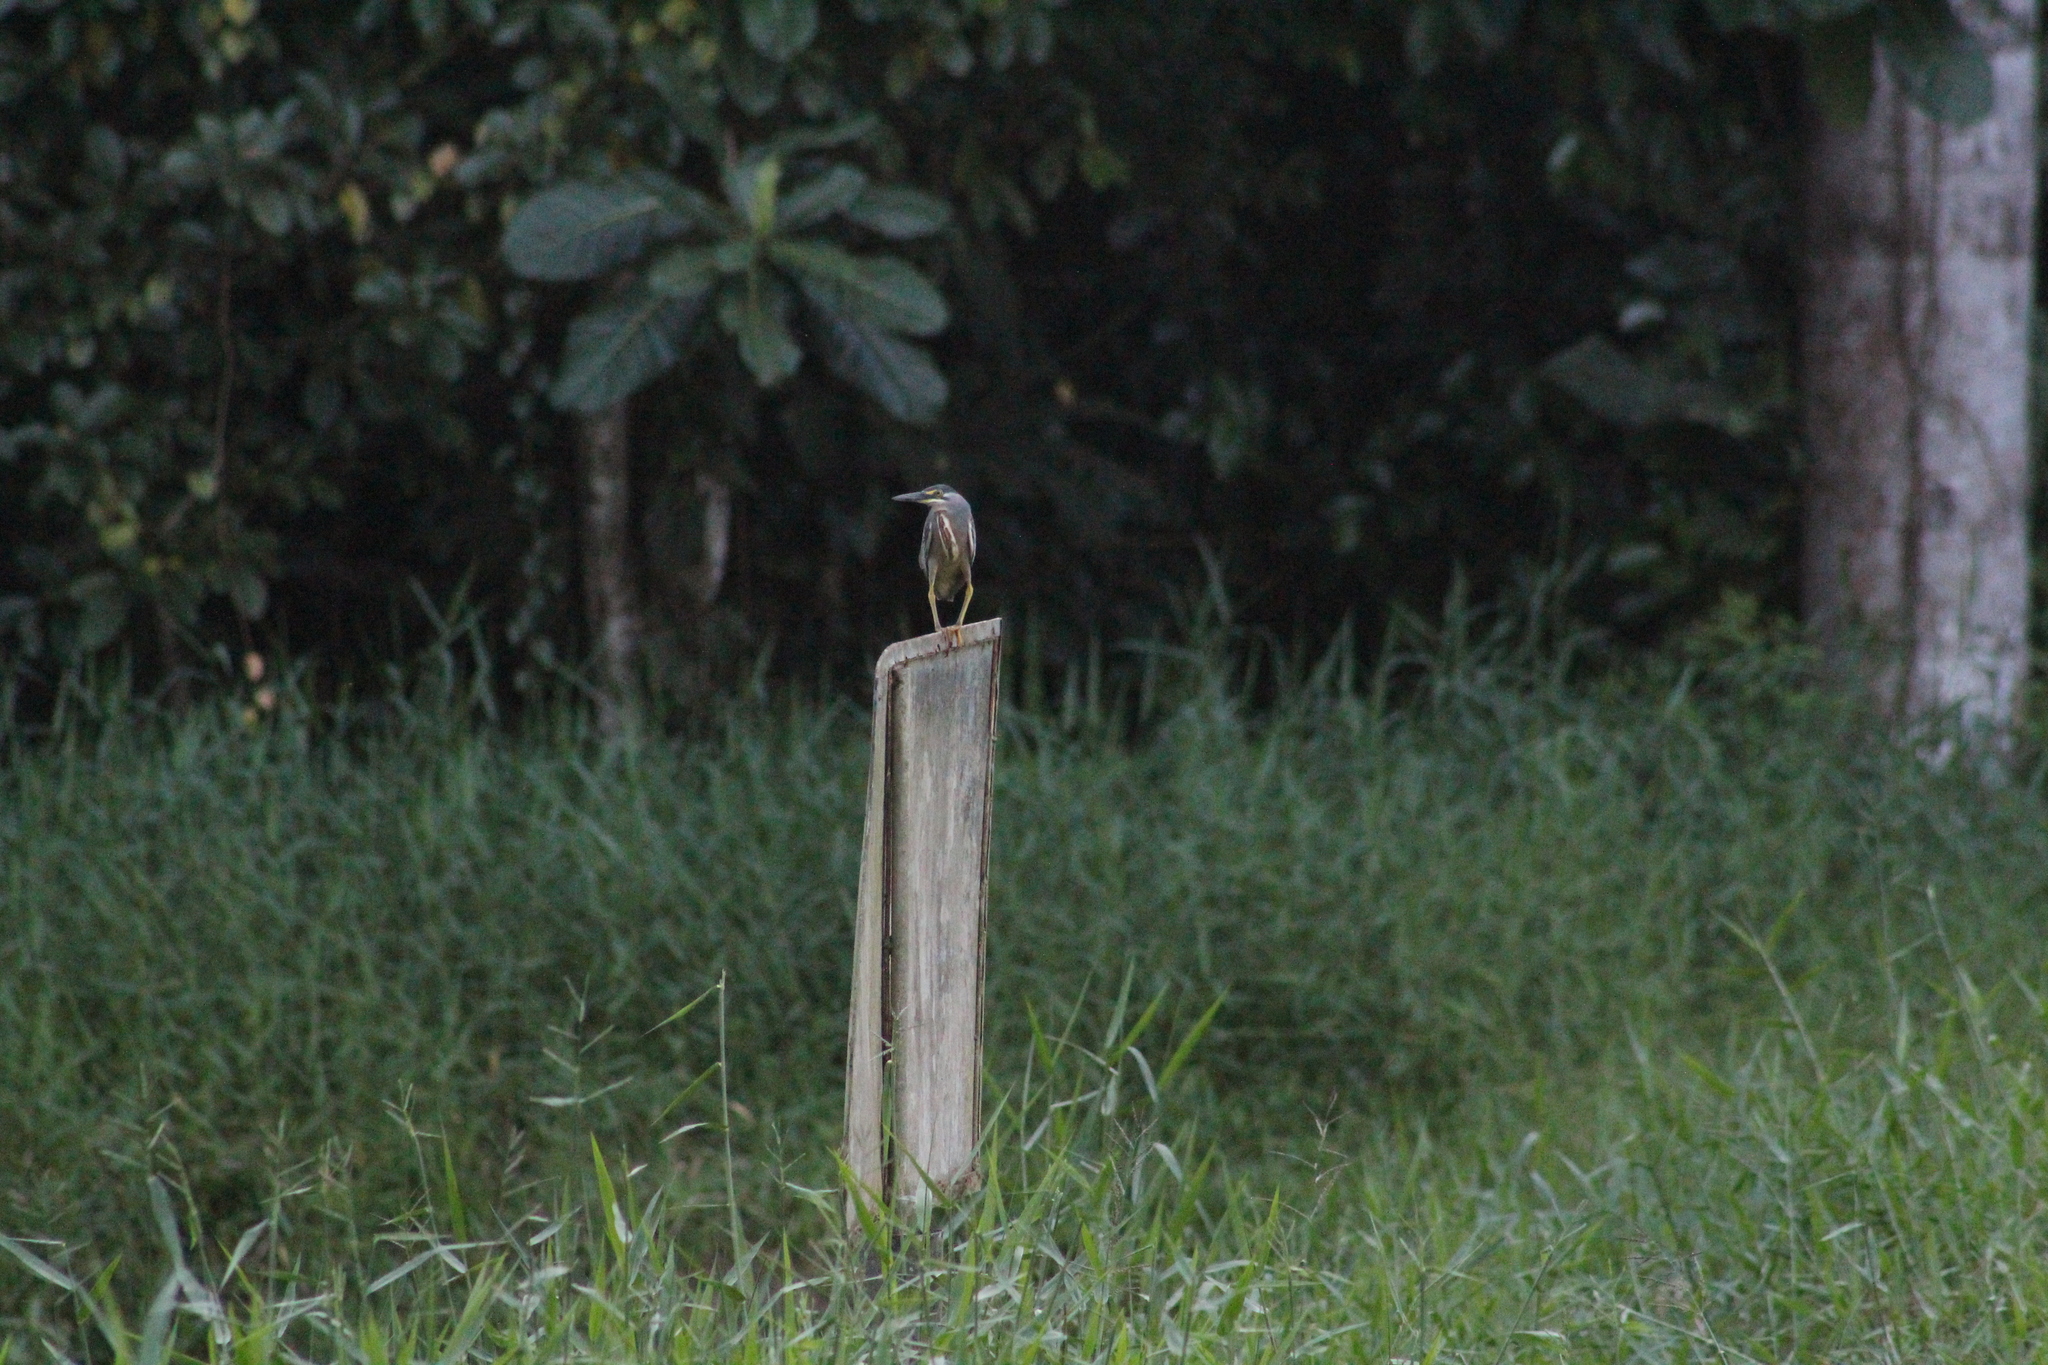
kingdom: Animalia
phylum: Chordata
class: Aves
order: Pelecaniformes
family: Ardeidae
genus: Butorides
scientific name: Butorides striata
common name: Striated heron
